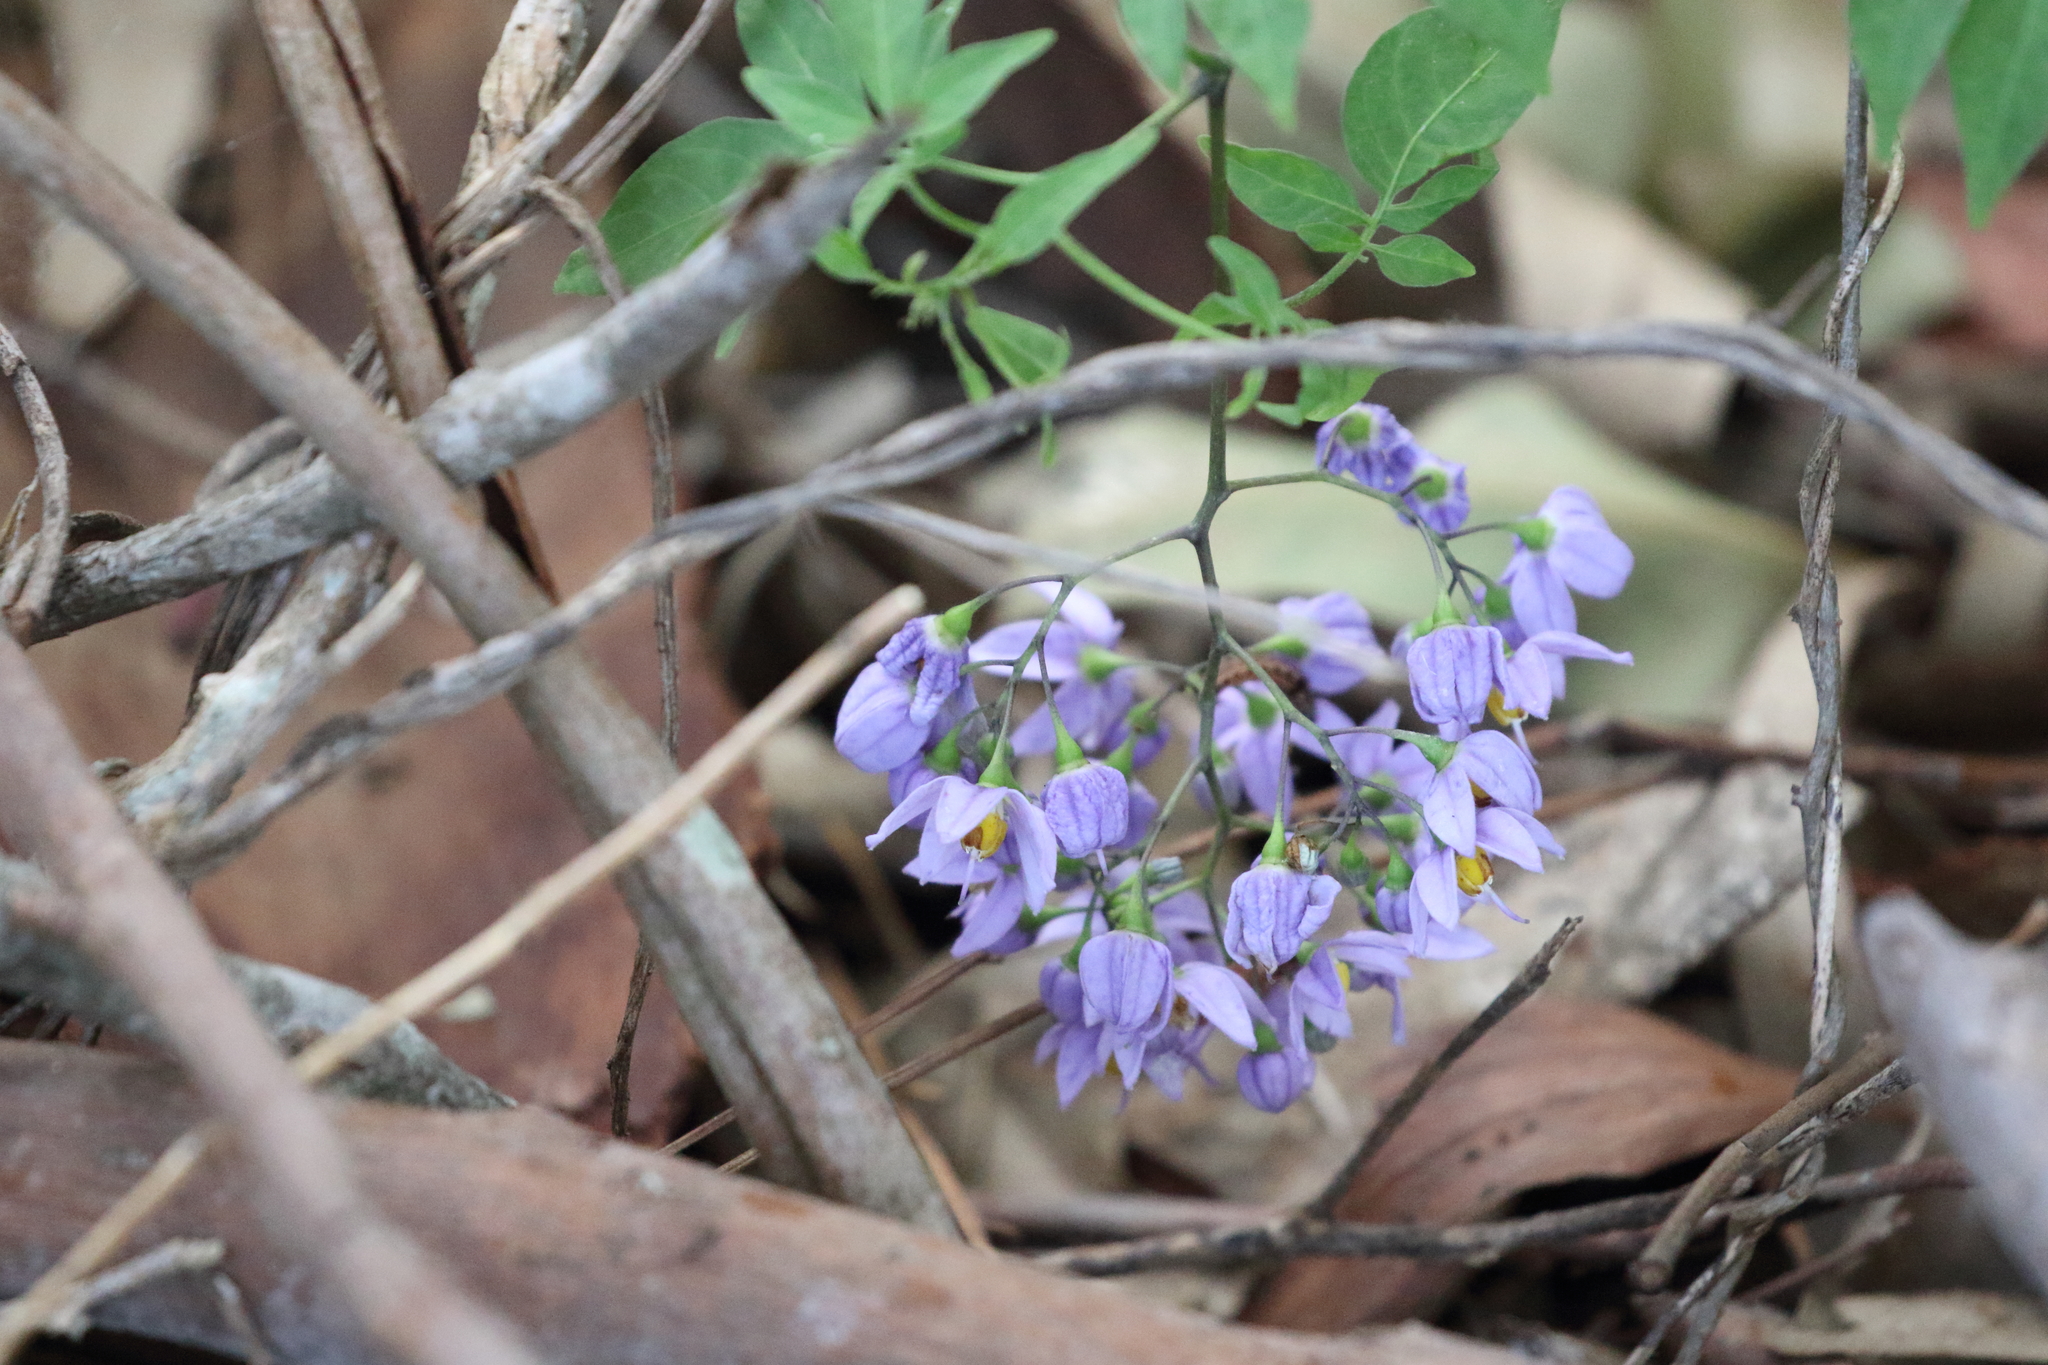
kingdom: Plantae
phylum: Tracheophyta
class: Magnoliopsida
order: Solanales
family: Solanaceae
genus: Solanum
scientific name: Solanum seaforthianum
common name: Brazilian nightshade
